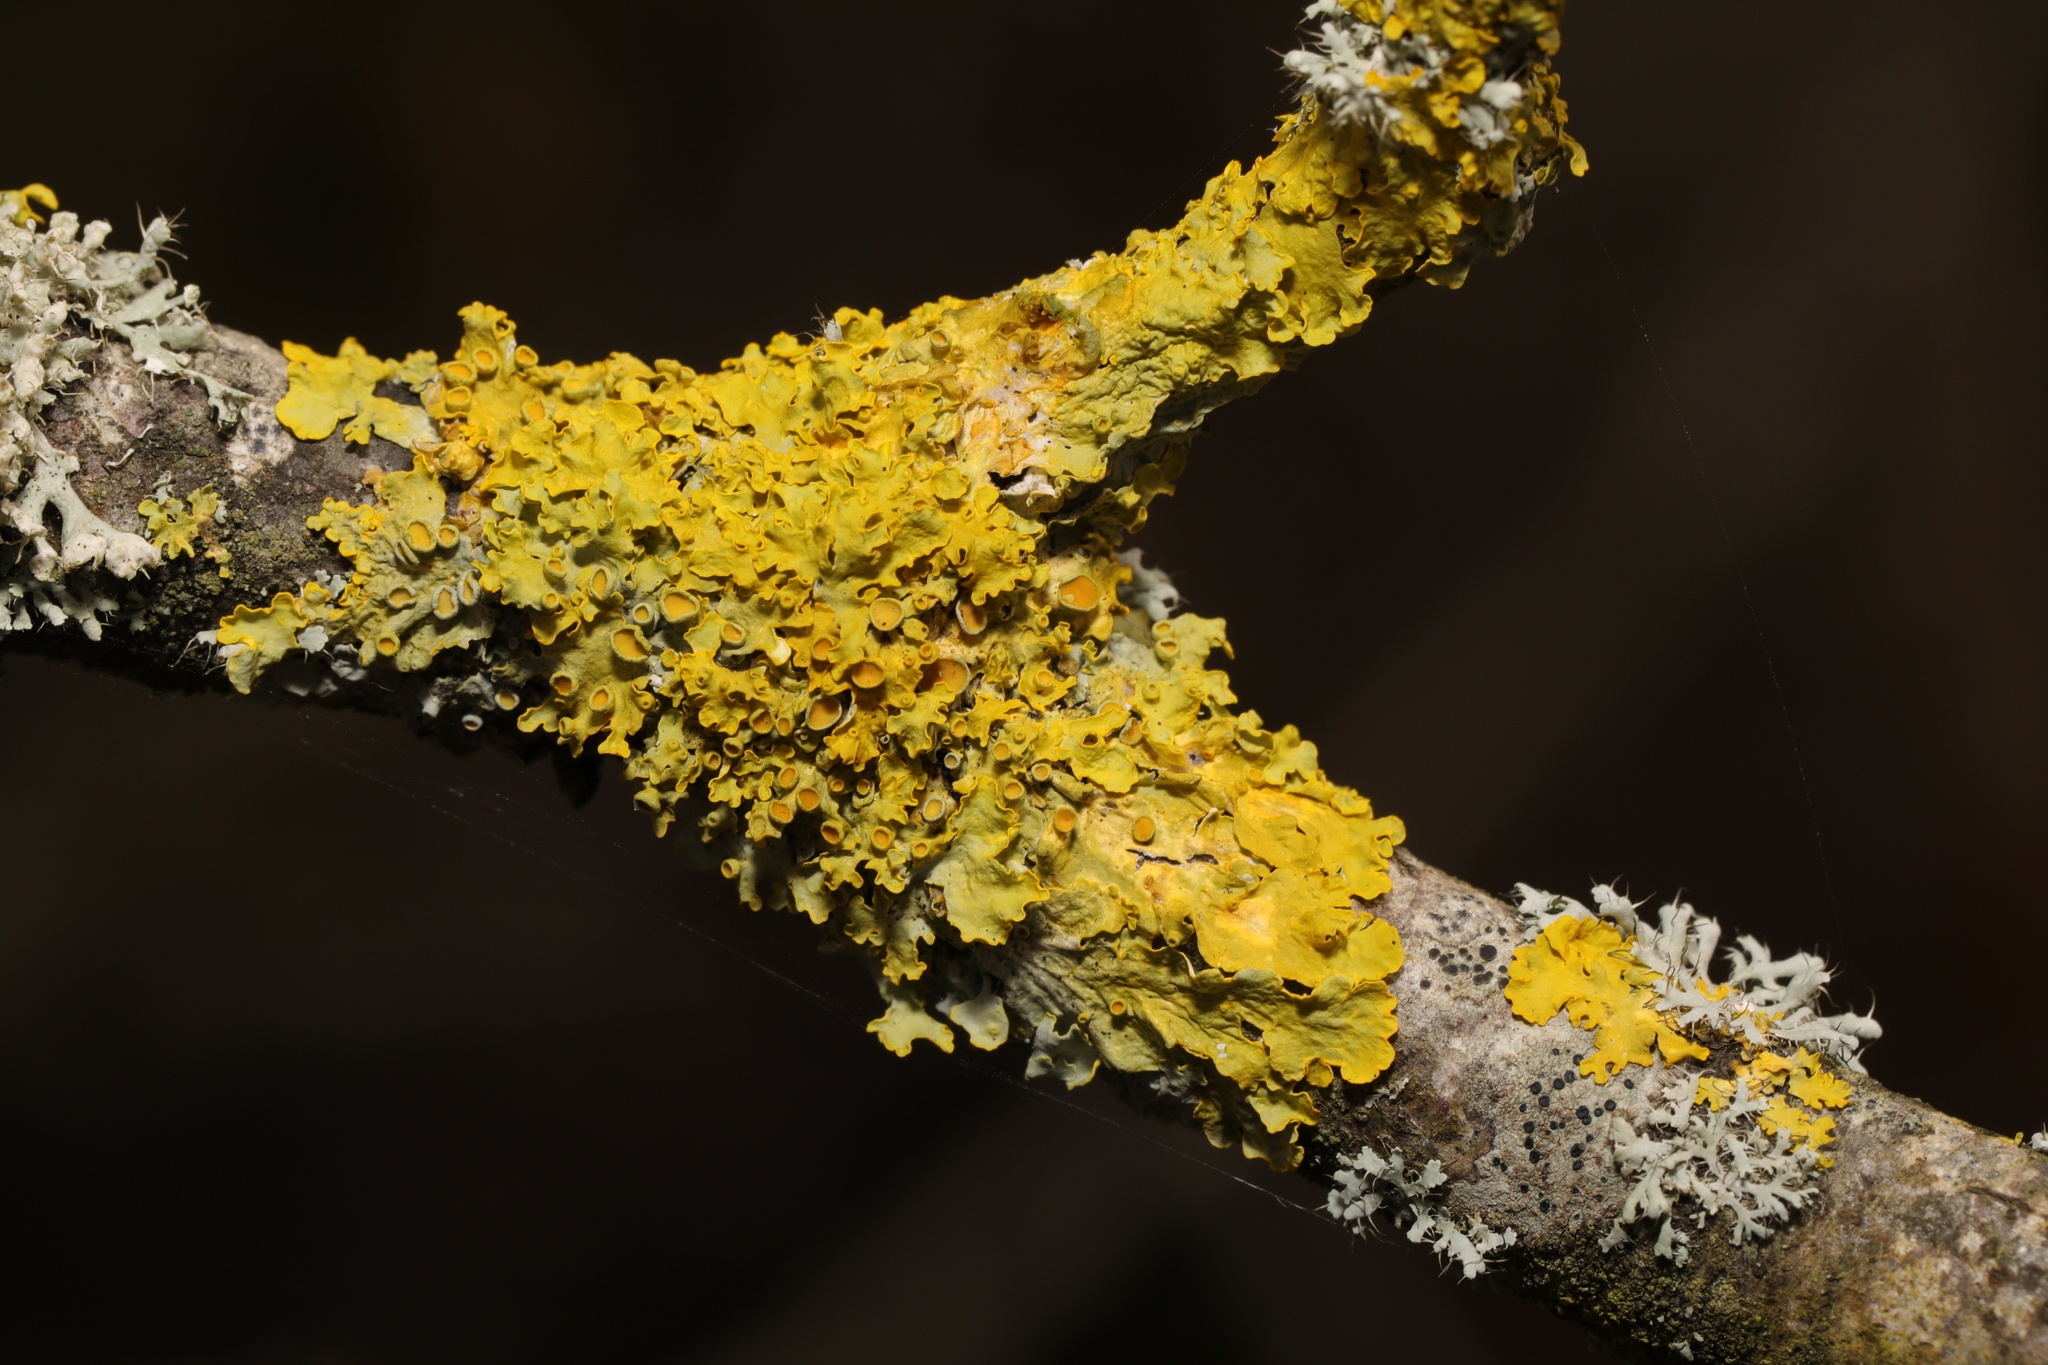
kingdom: Fungi
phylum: Ascomycota
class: Lecanoromycetes
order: Teloschistales
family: Teloschistaceae
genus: Xanthoria
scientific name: Xanthoria parietina
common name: Common orange lichen
